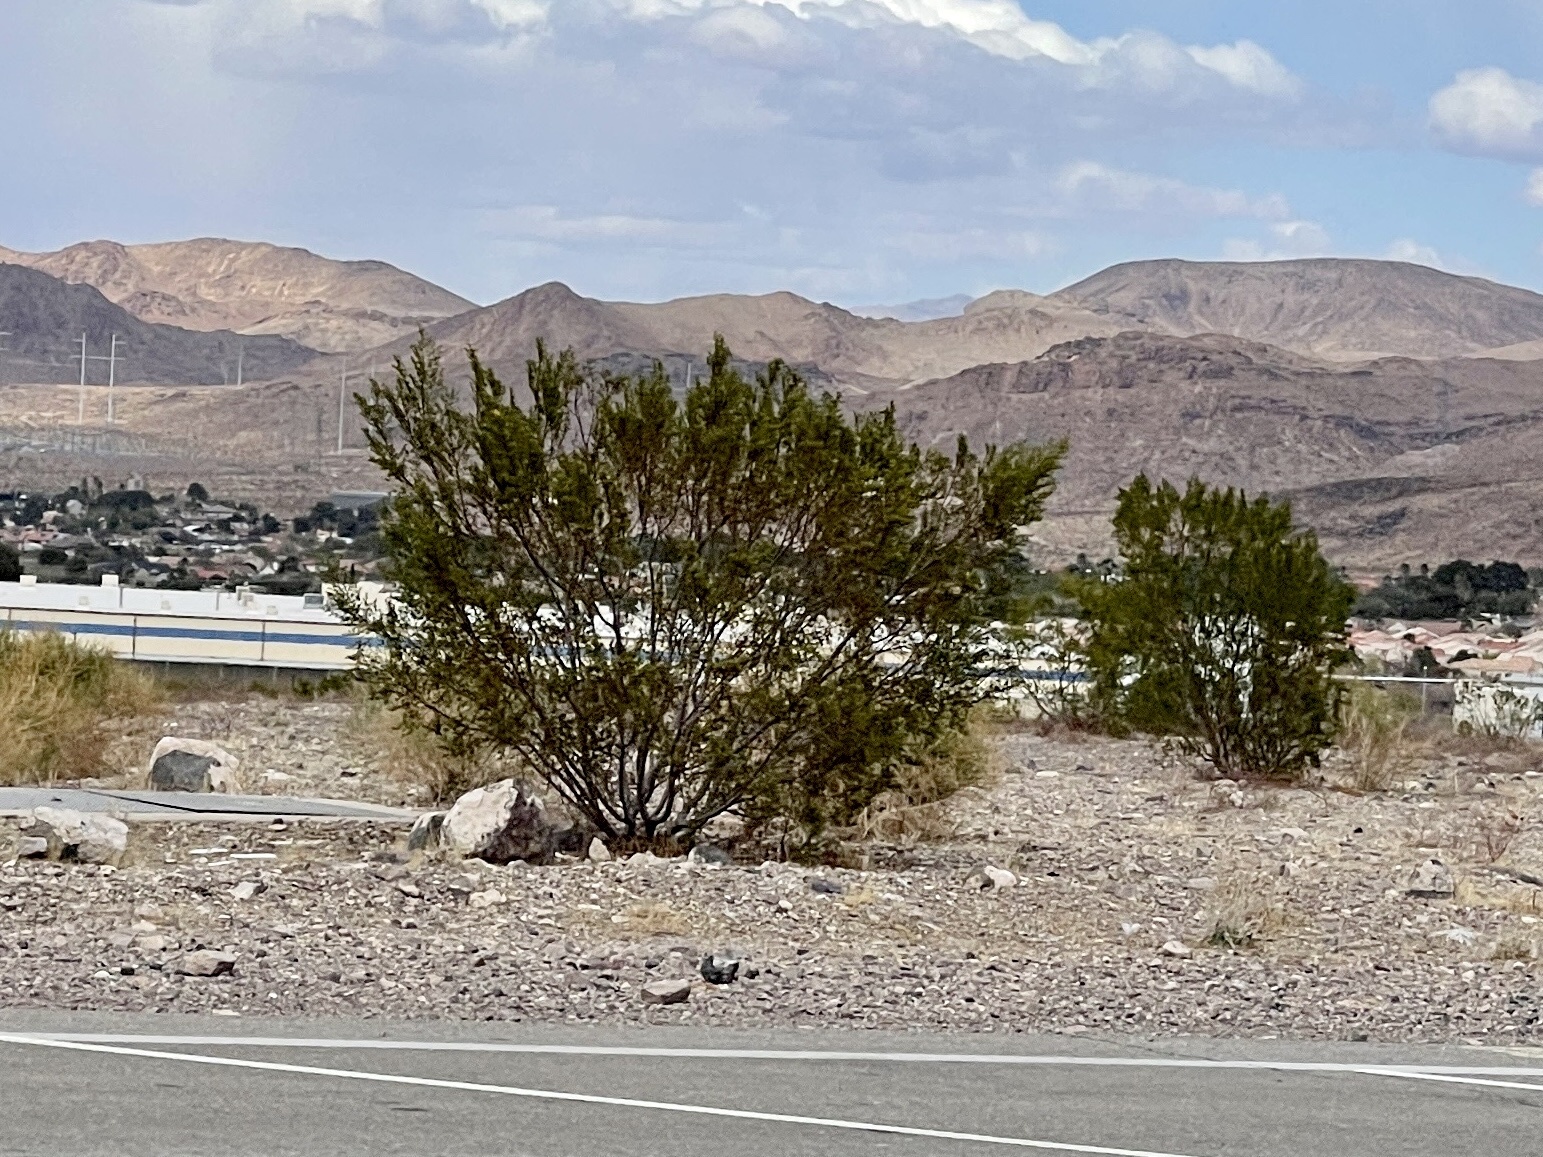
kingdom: Plantae
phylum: Tracheophyta
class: Magnoliopsida
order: Zygophyllales
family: Zygophyllaceae
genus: Larrea
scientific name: Larrea tridentata
